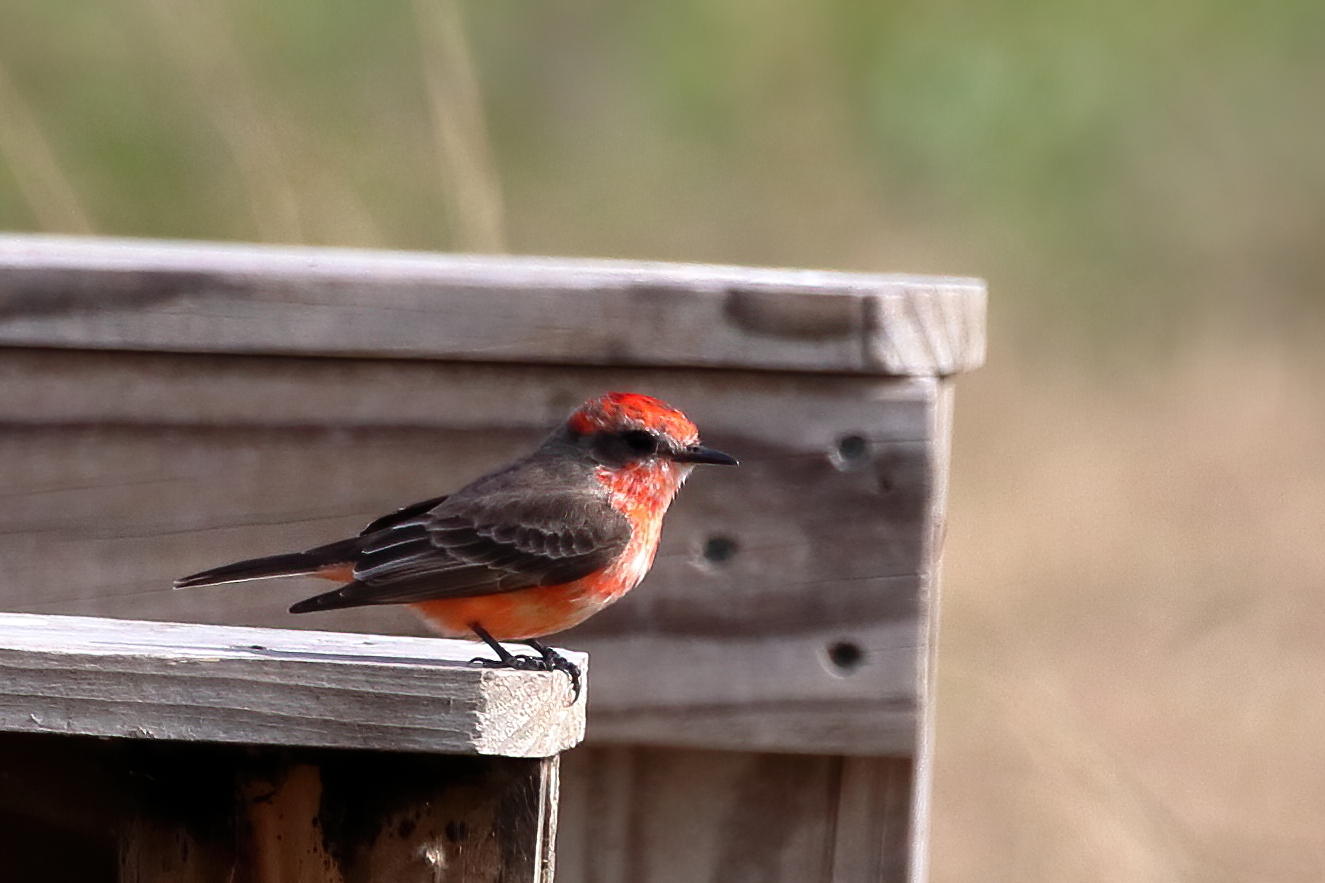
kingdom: Animalia
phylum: Chordata
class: Aves
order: Passeriformes
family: Tyrannidae
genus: Pyrocephalus
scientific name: Pyrocephalus rubinus
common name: Vermilion flycatcher
